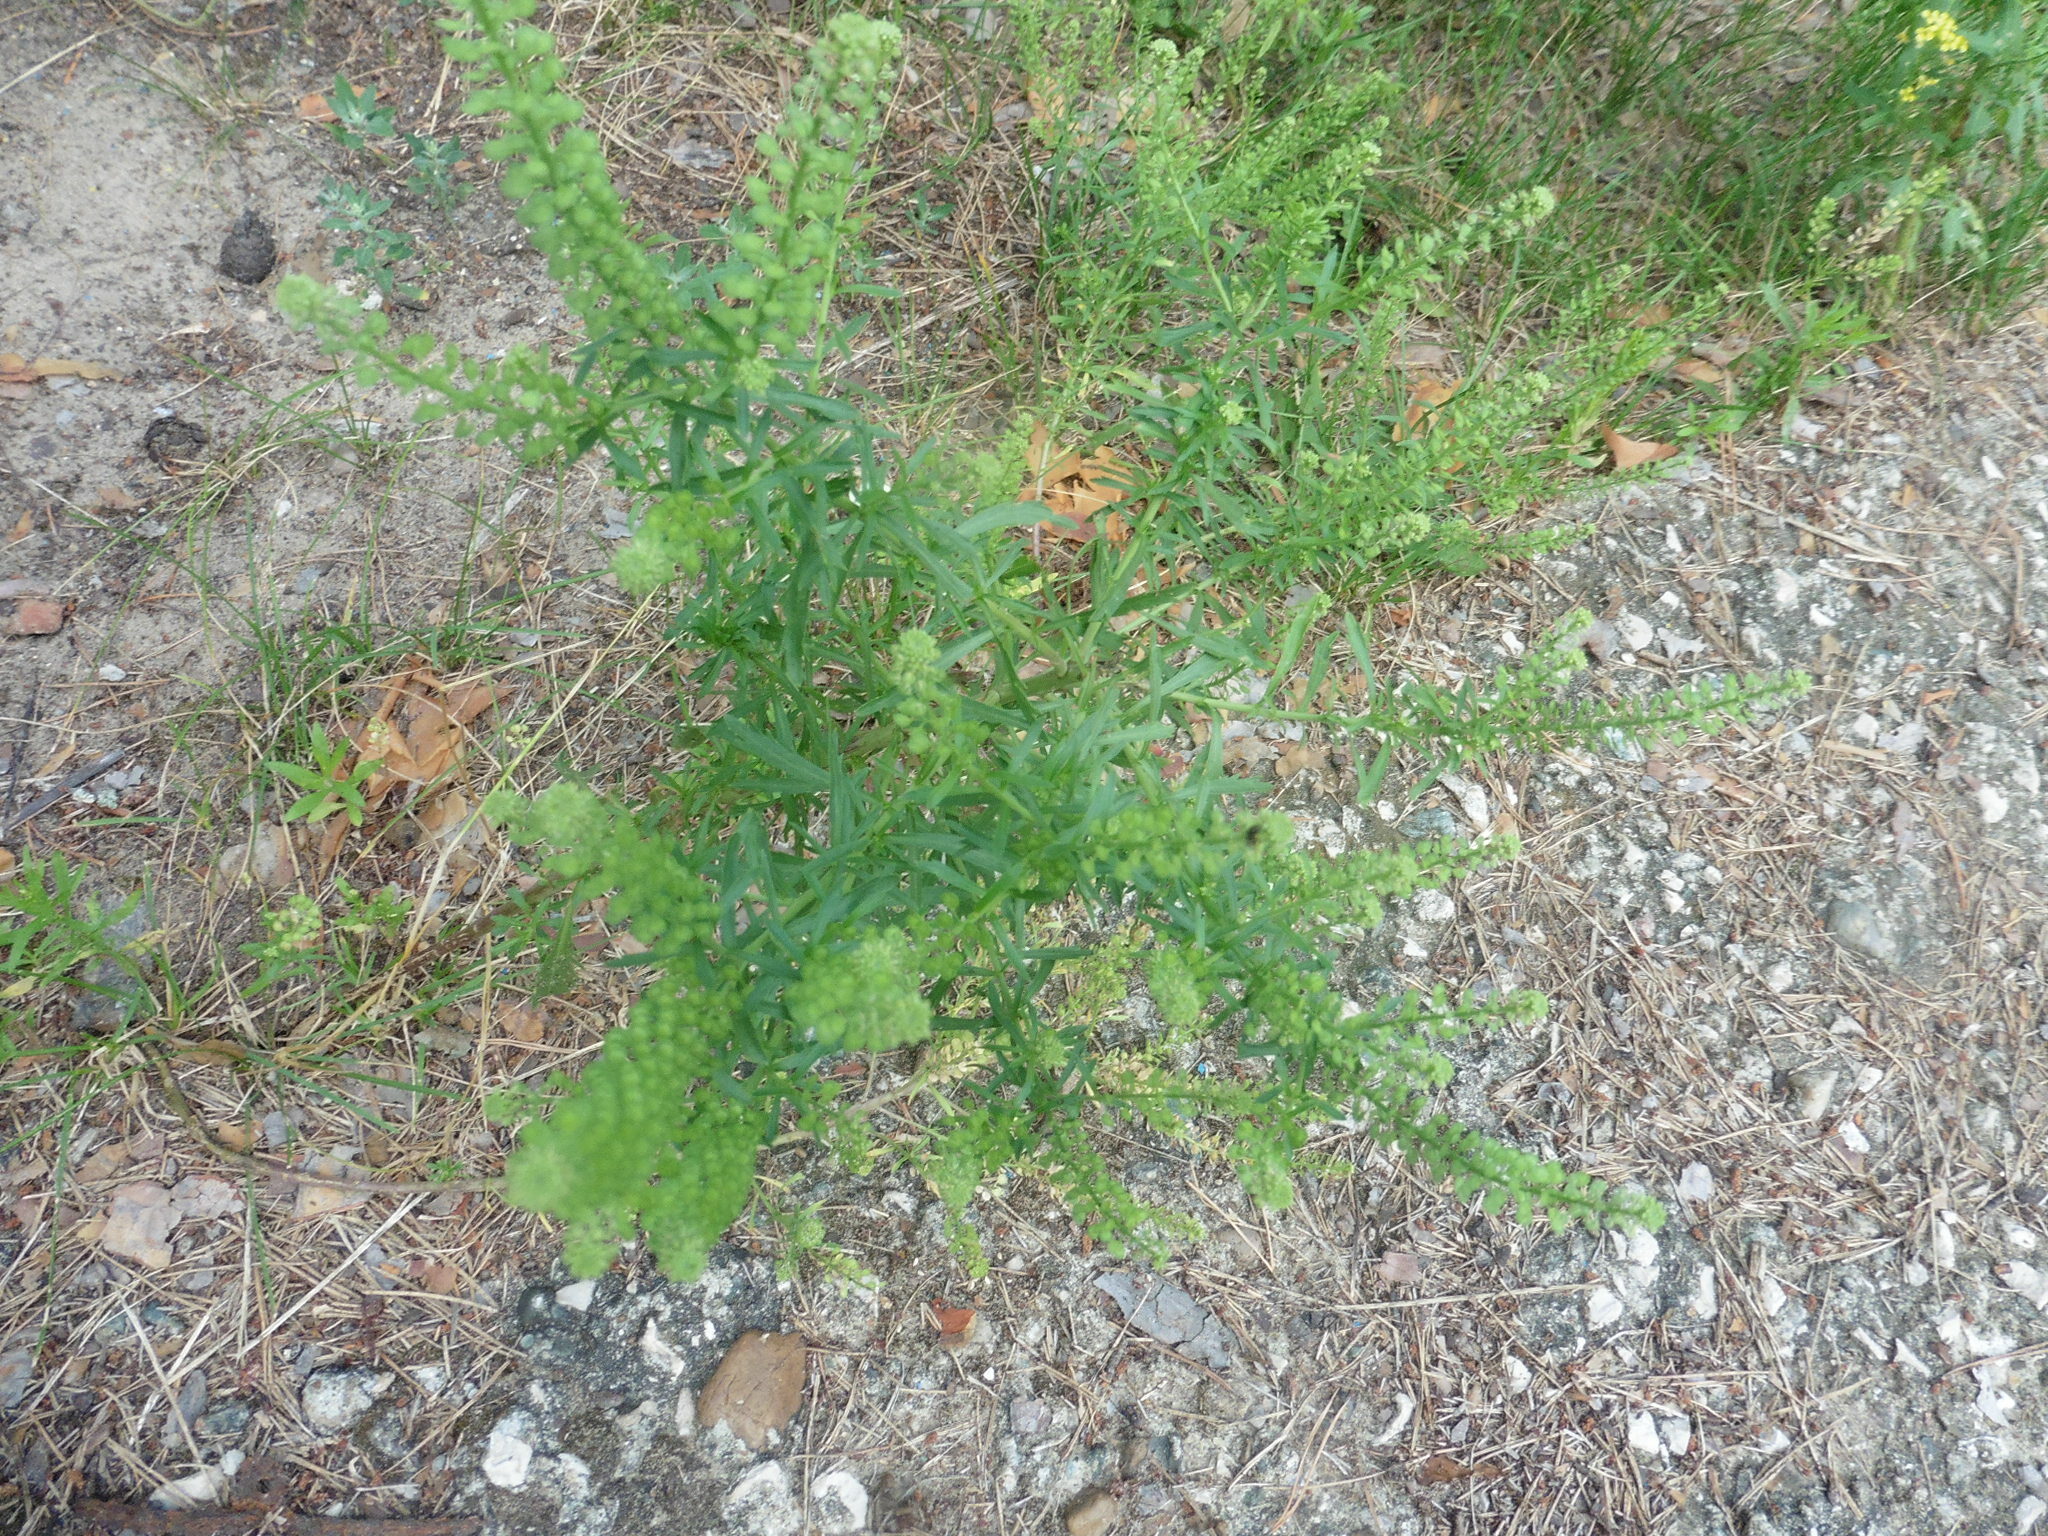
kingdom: Plantae
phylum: Tracheophyta
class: Magnoliopsida
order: Brassicales
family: Brassicaceae
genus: Lepidium
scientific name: Lepidium densiflorum
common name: Miner's pepperwort
